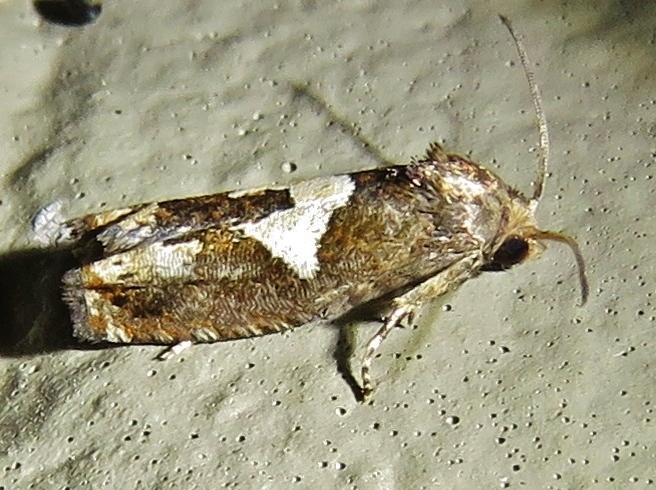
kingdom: Animalia
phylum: Arthropoda
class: Insecta
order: Lepidoptera
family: Tortricidae
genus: Epiblema
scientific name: Epiblema otiosana
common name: Bidens borer moth
